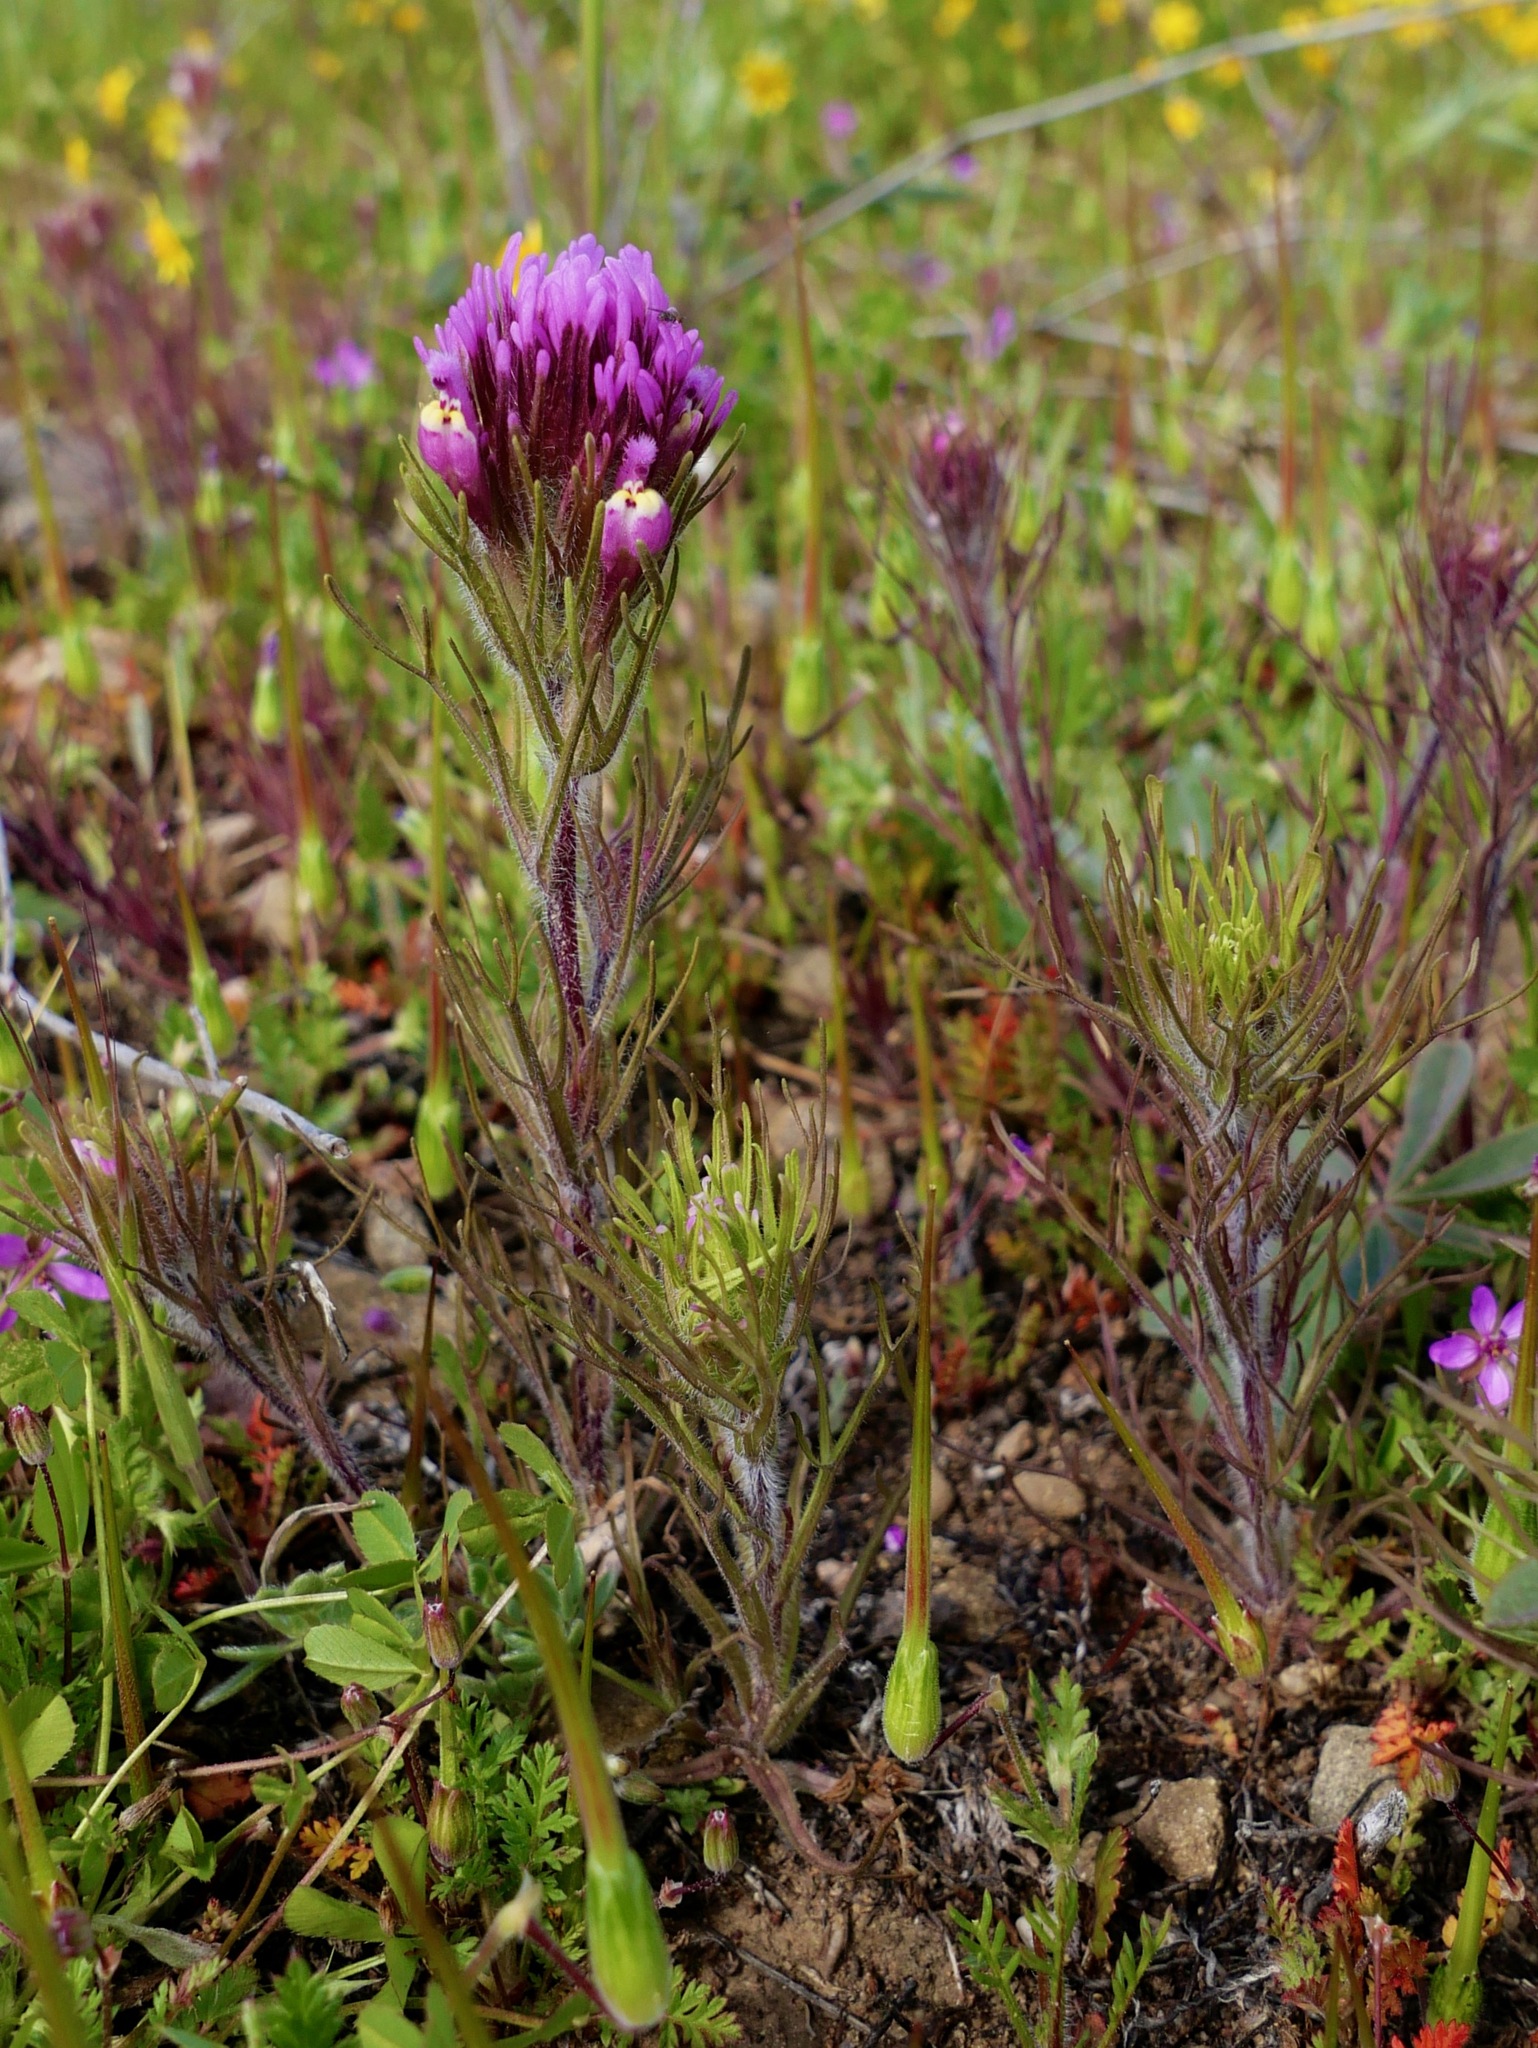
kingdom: Plantae
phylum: Tracheophyta
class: Magnoliopsida
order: Lamiales
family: Orobanchaceae
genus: Castilleja
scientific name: Castilleja exserta
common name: Purple owl-clover
